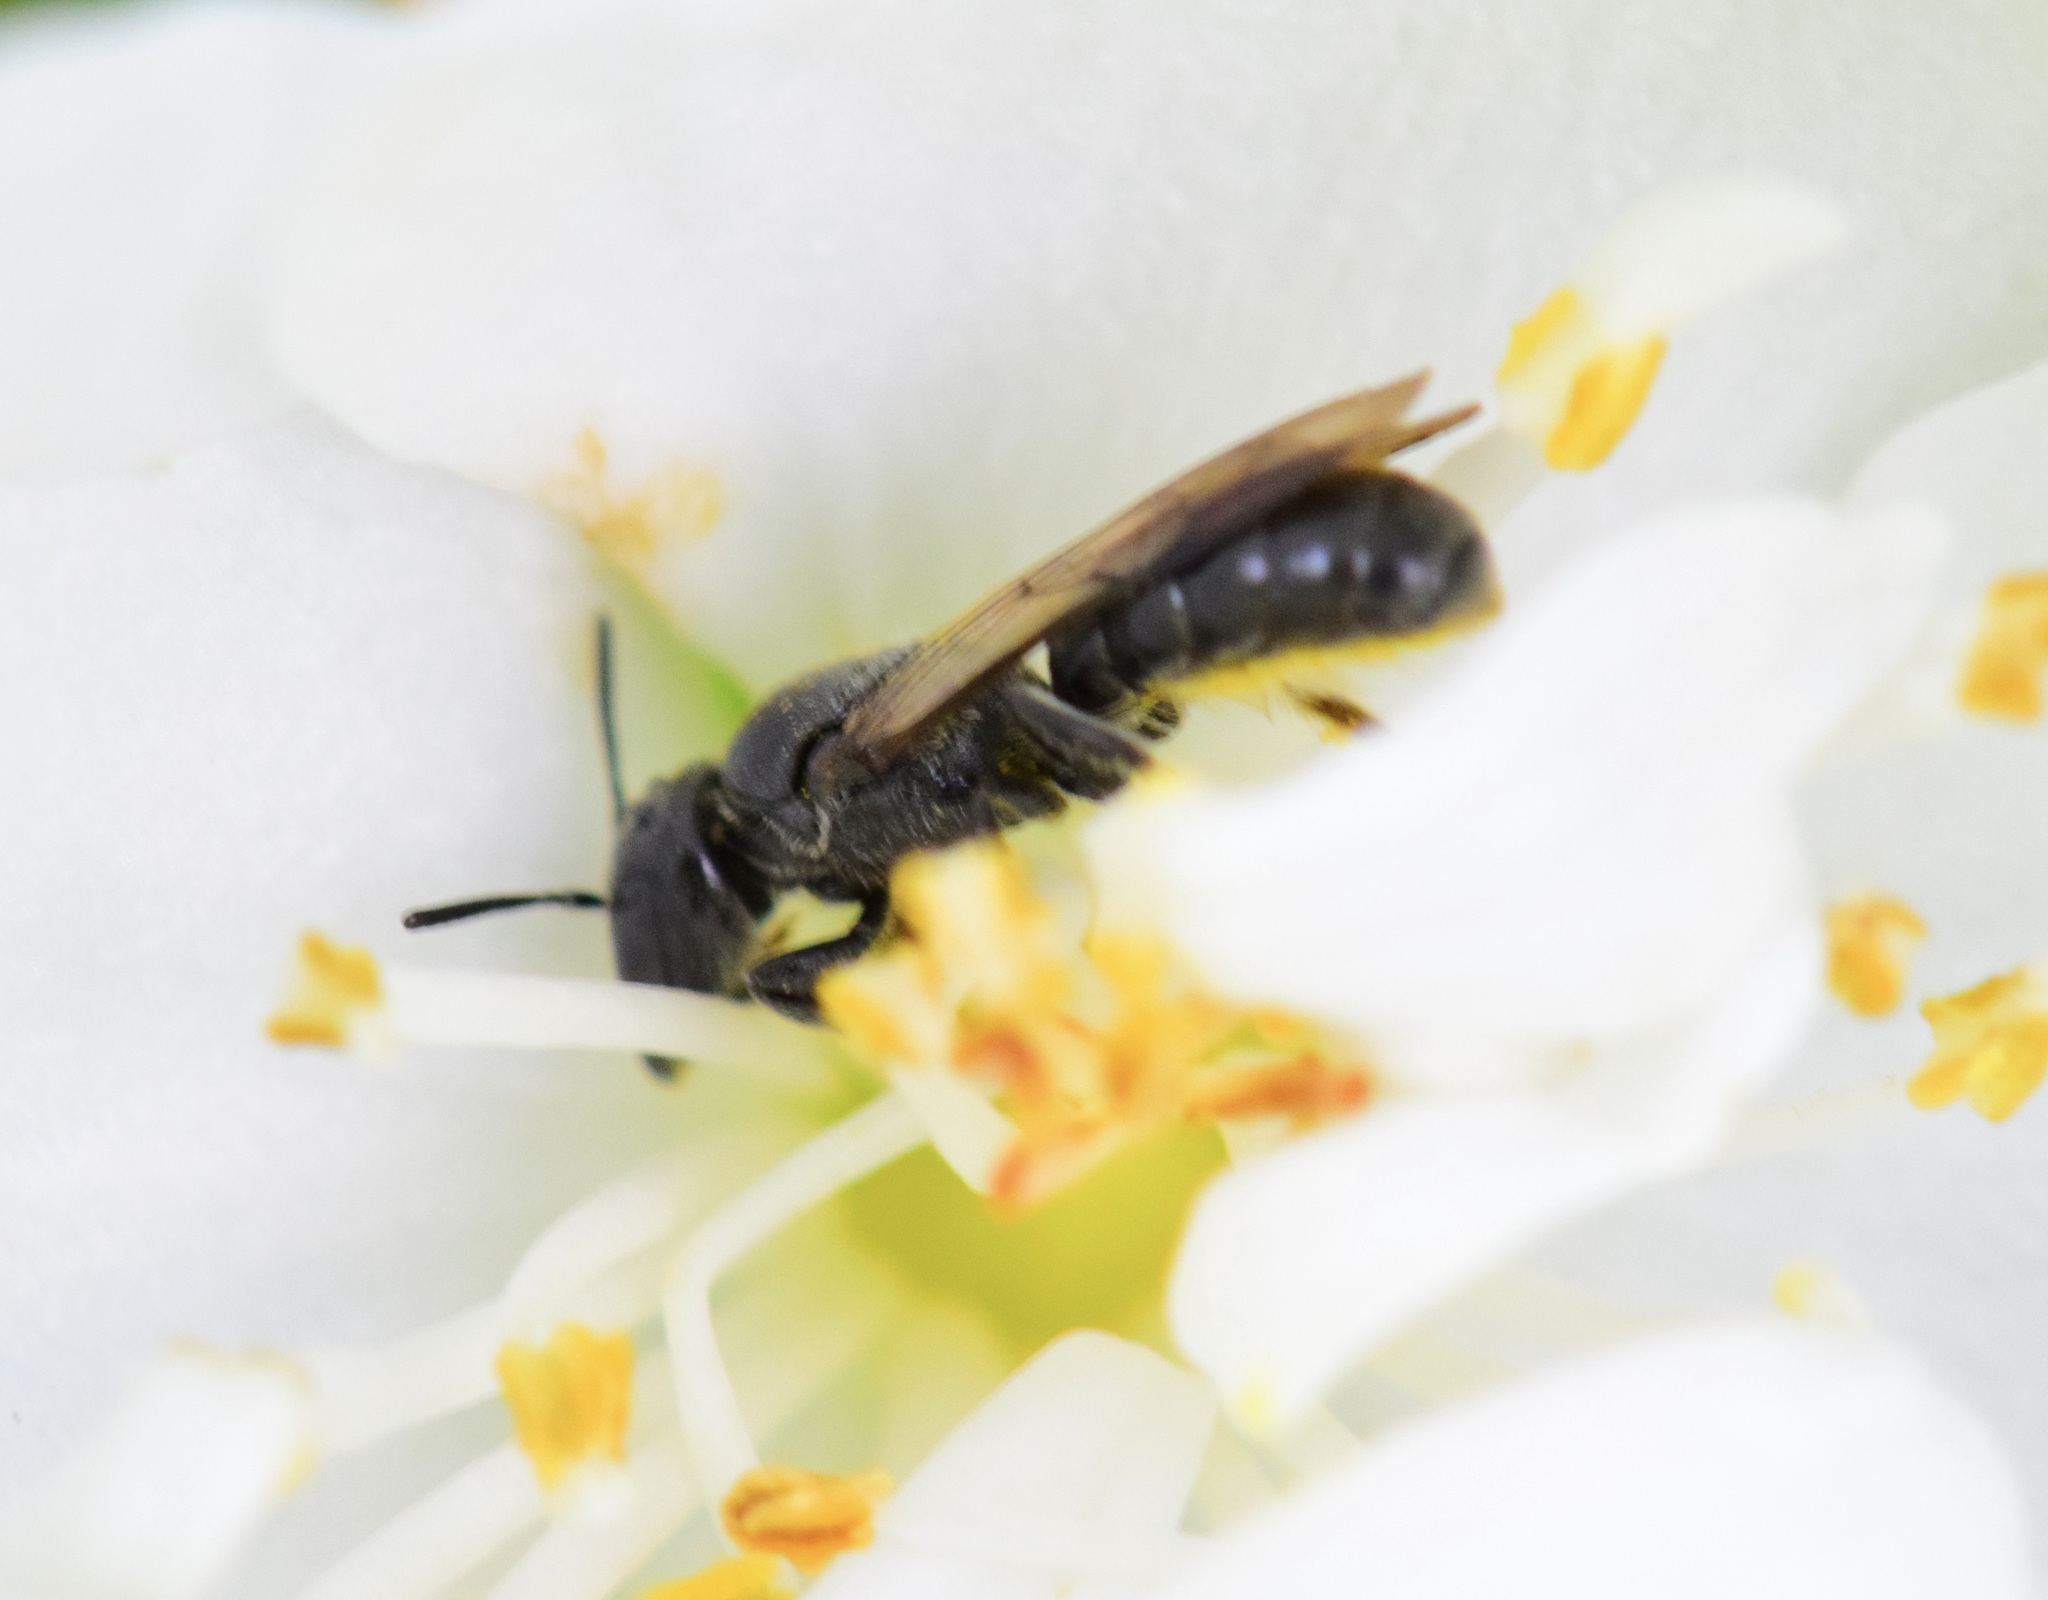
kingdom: Animalia
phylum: Arthropoda
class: Insecta
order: Hymenoptera
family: Megachilidae
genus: Chelostoma
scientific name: Chelostoma philadelphi
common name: Mock-orange scissor bee
